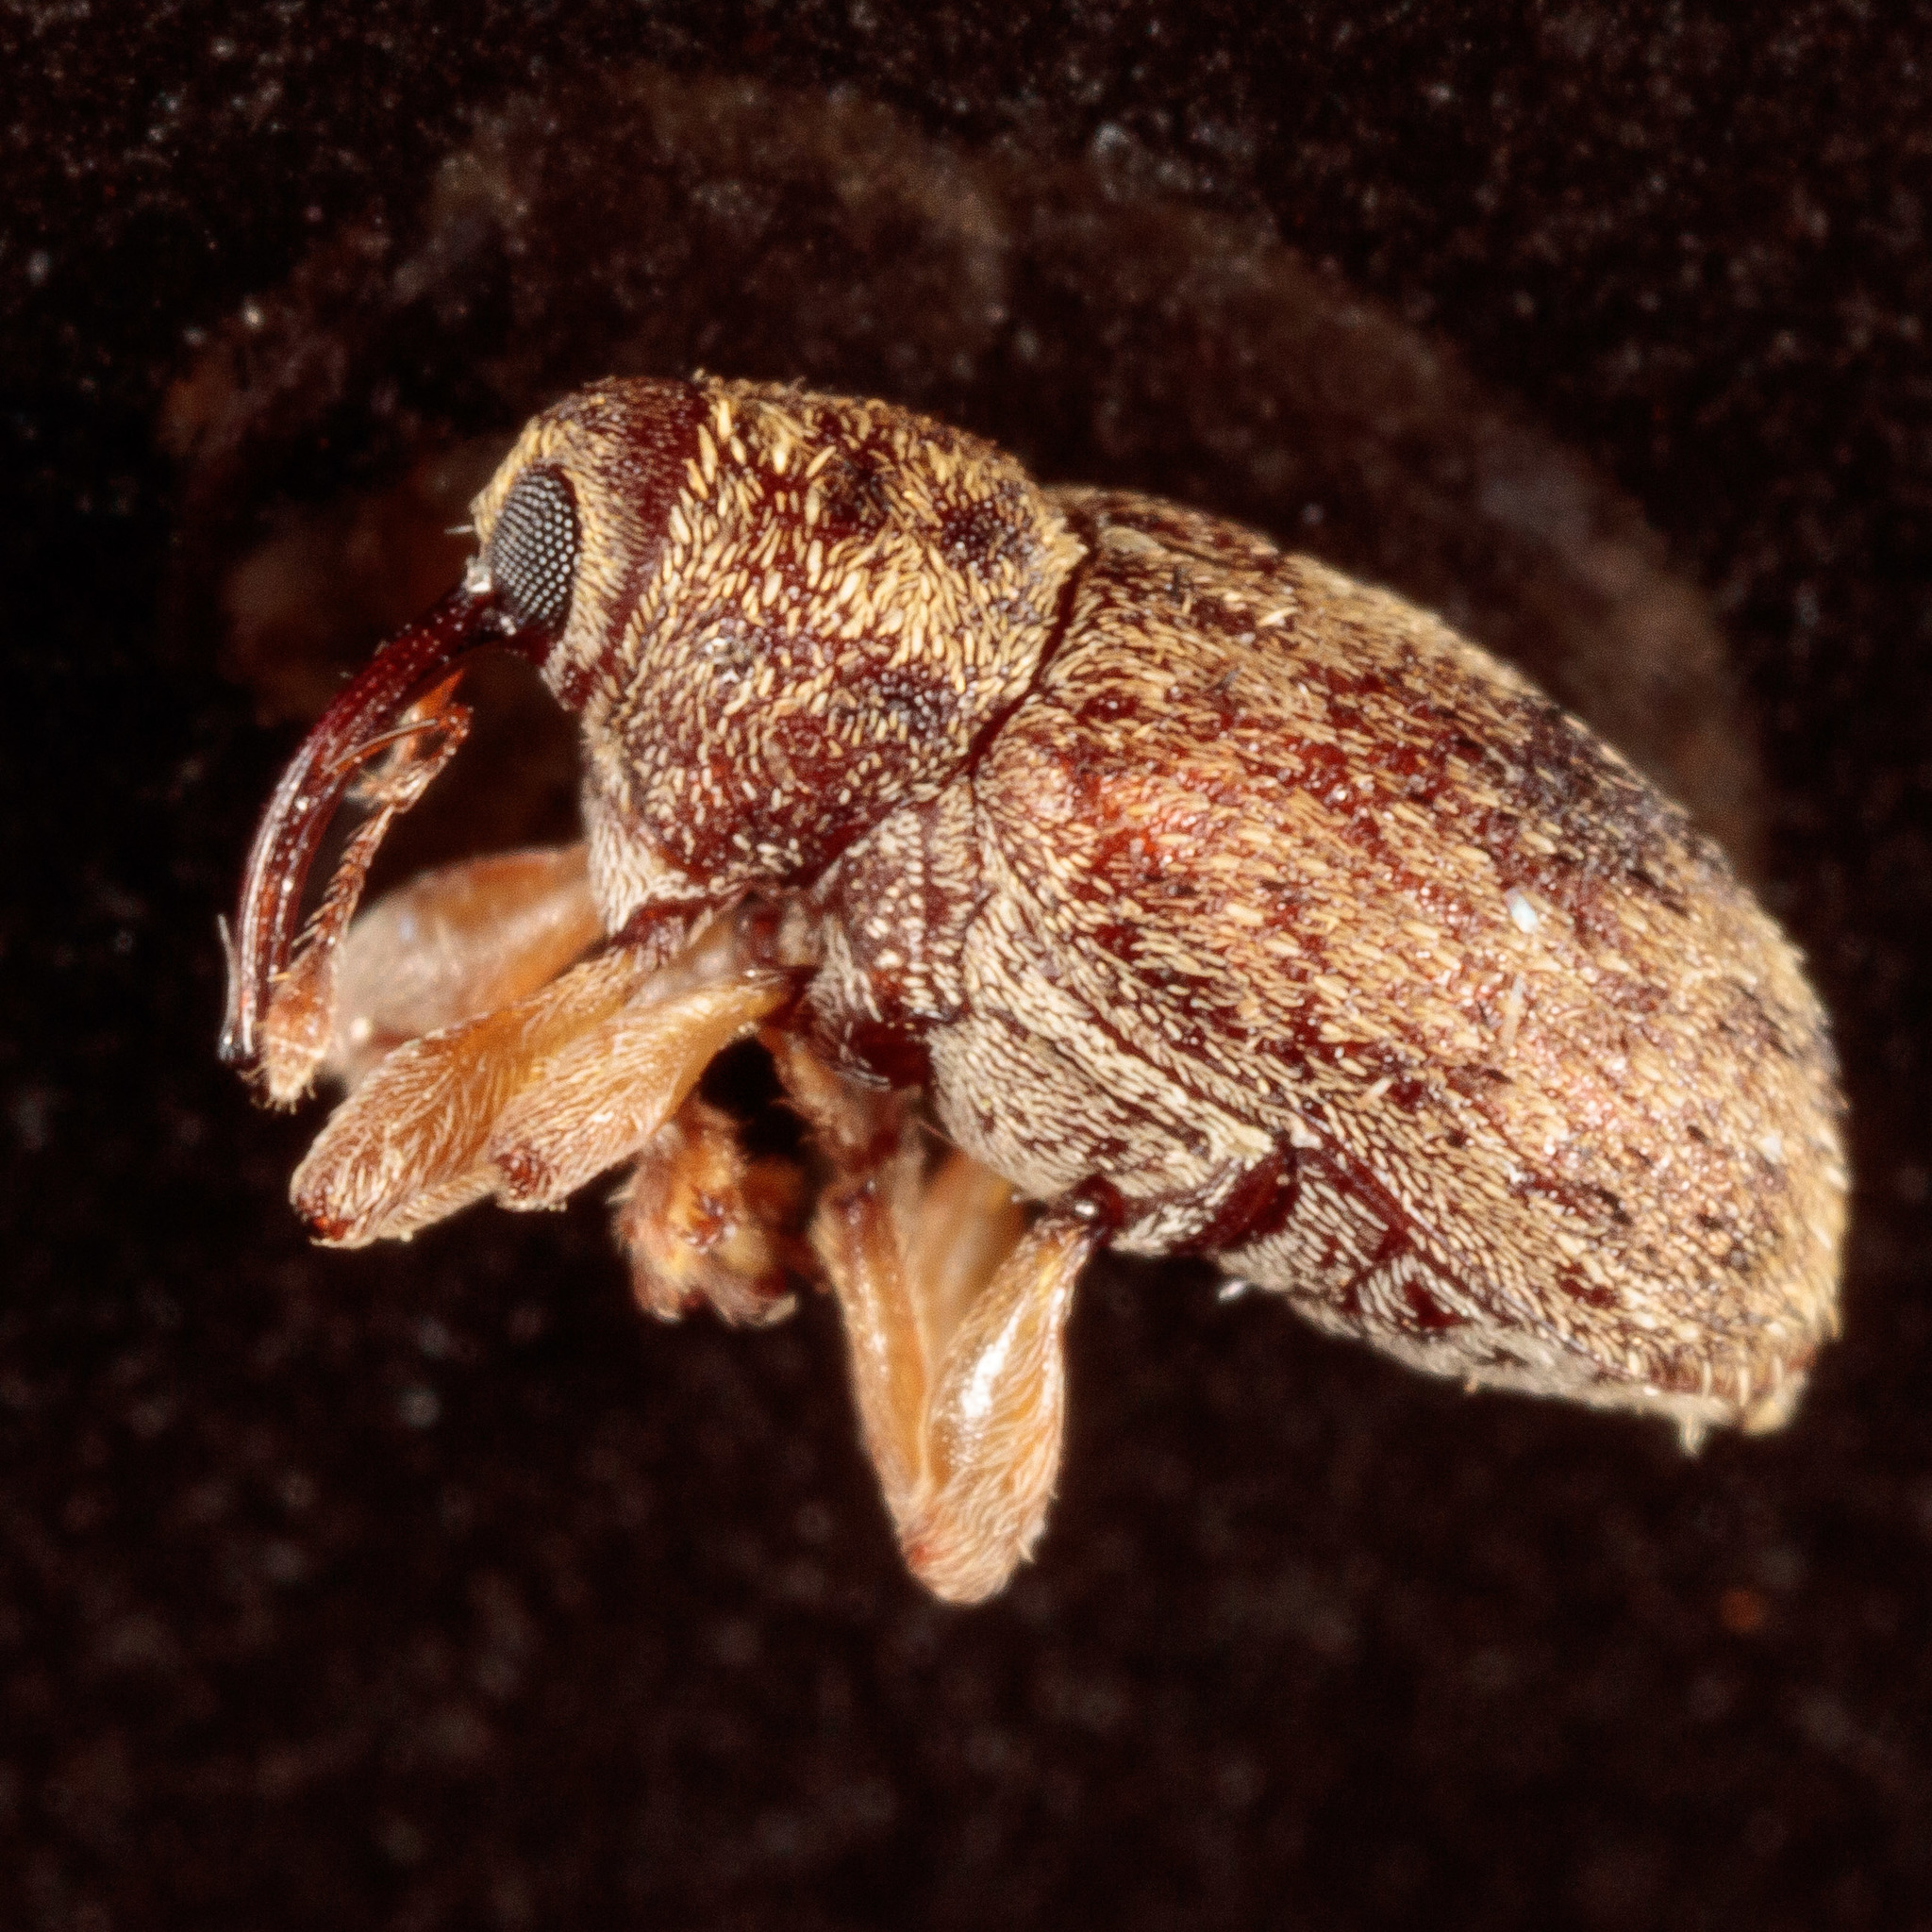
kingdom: Animalia
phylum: Arthropoda
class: Insecta
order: Coleoptera
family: Curculionidae
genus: Thysanocnemis
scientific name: Thysanocnemis bischoffi
